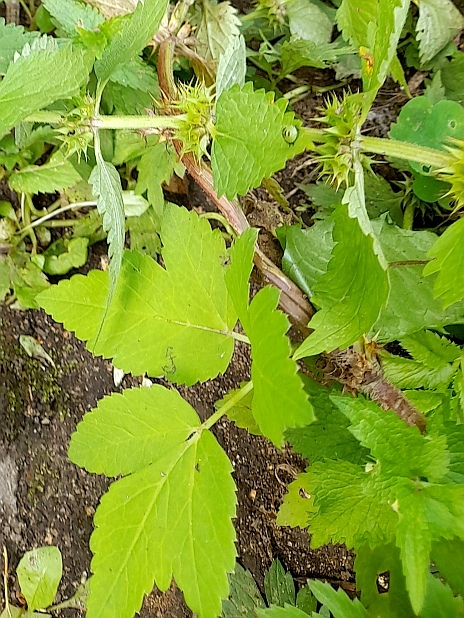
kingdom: Plantae
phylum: Tracheophyta
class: Magnoliopsida
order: Apiales
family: Apiaceae
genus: Aegopodium
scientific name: Aegopodium podagraria
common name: Ground-elder
